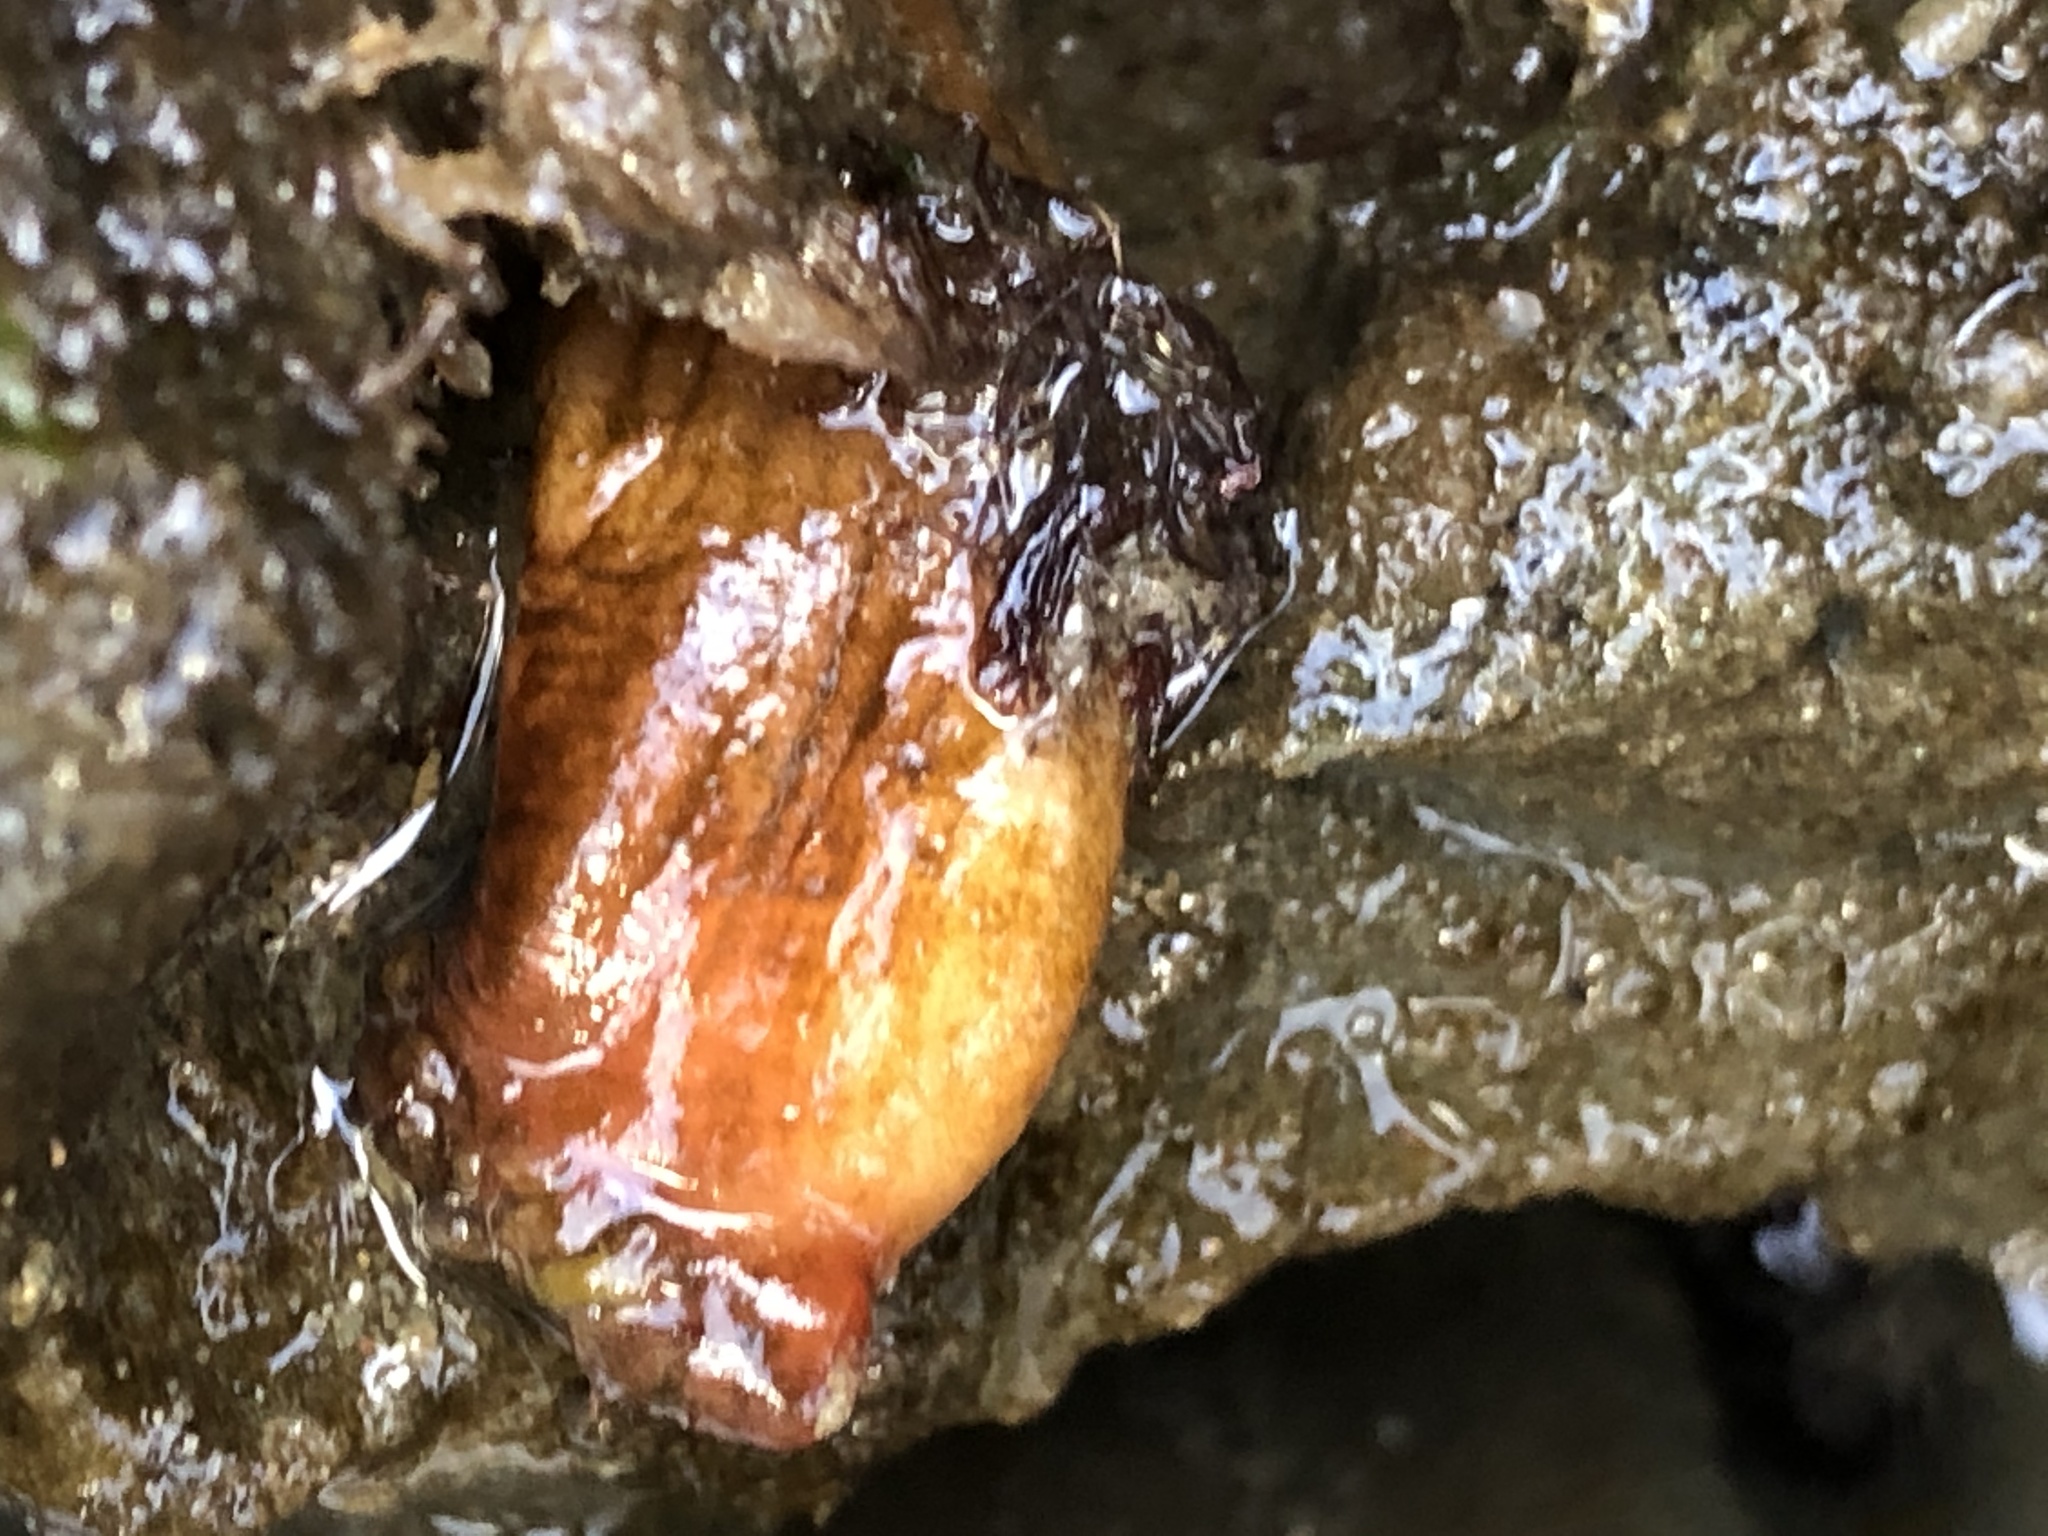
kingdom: Animalia
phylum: Chordata
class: Ascidiacea
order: Stolidobranchia
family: Styelidae
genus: Styela
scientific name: Styela montereyensis
